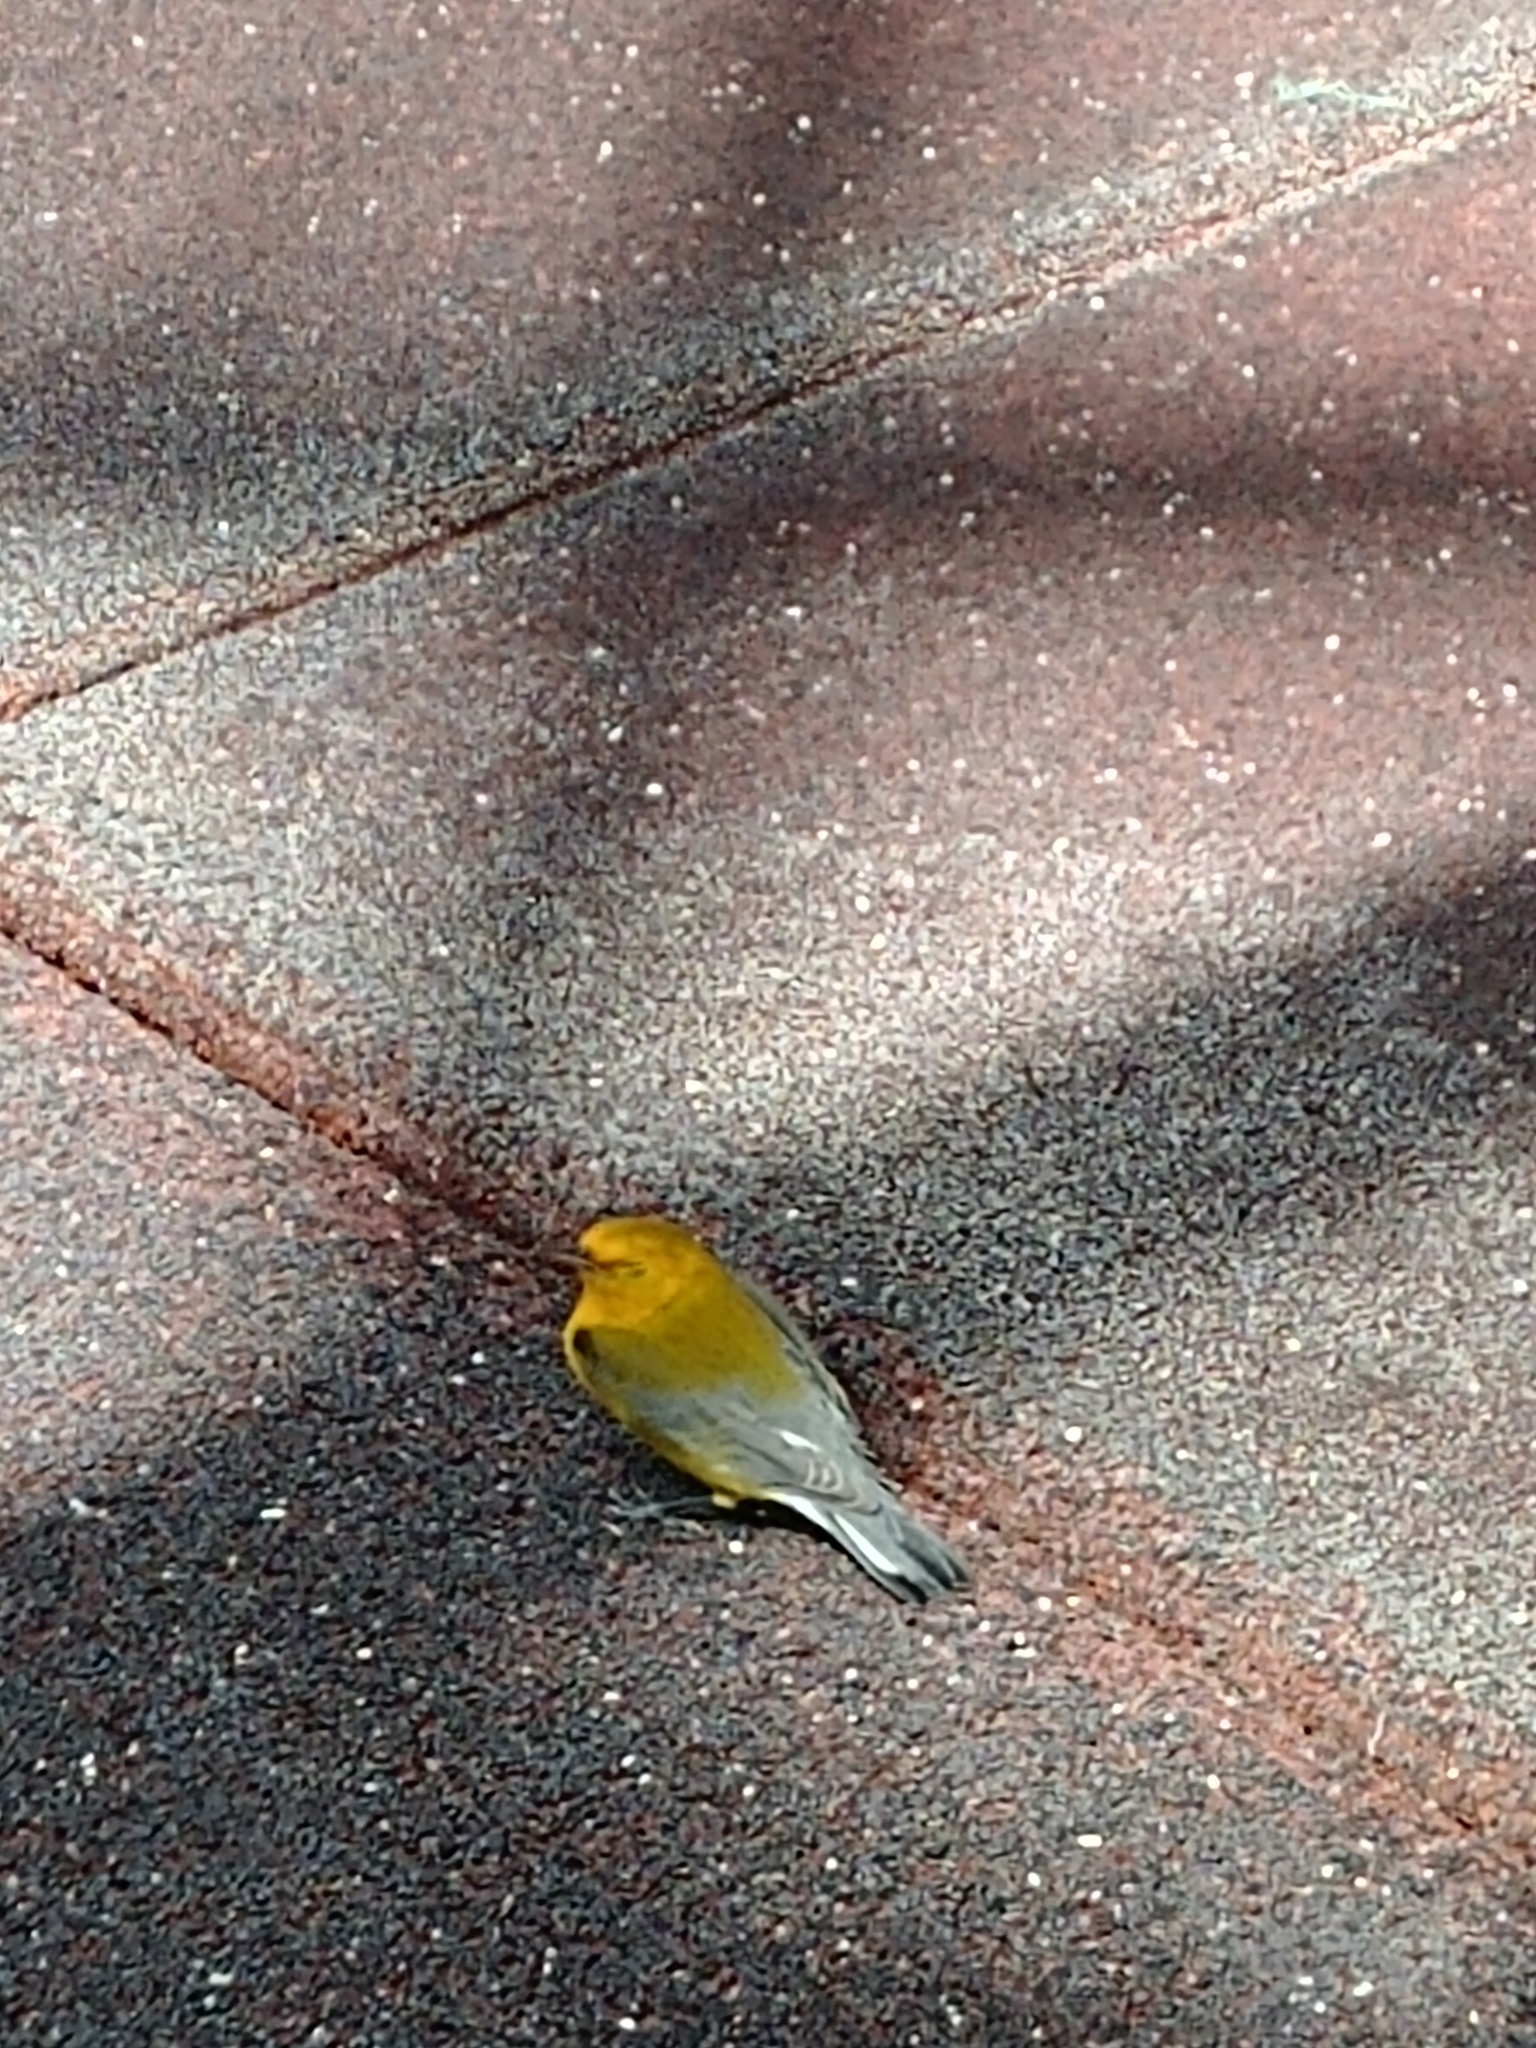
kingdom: Animalia
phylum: Chordata
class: Aves
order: Passeriformes
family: Parulidae
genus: Protonotaria
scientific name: Protonotaria citrea
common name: Prothonotary warbler
